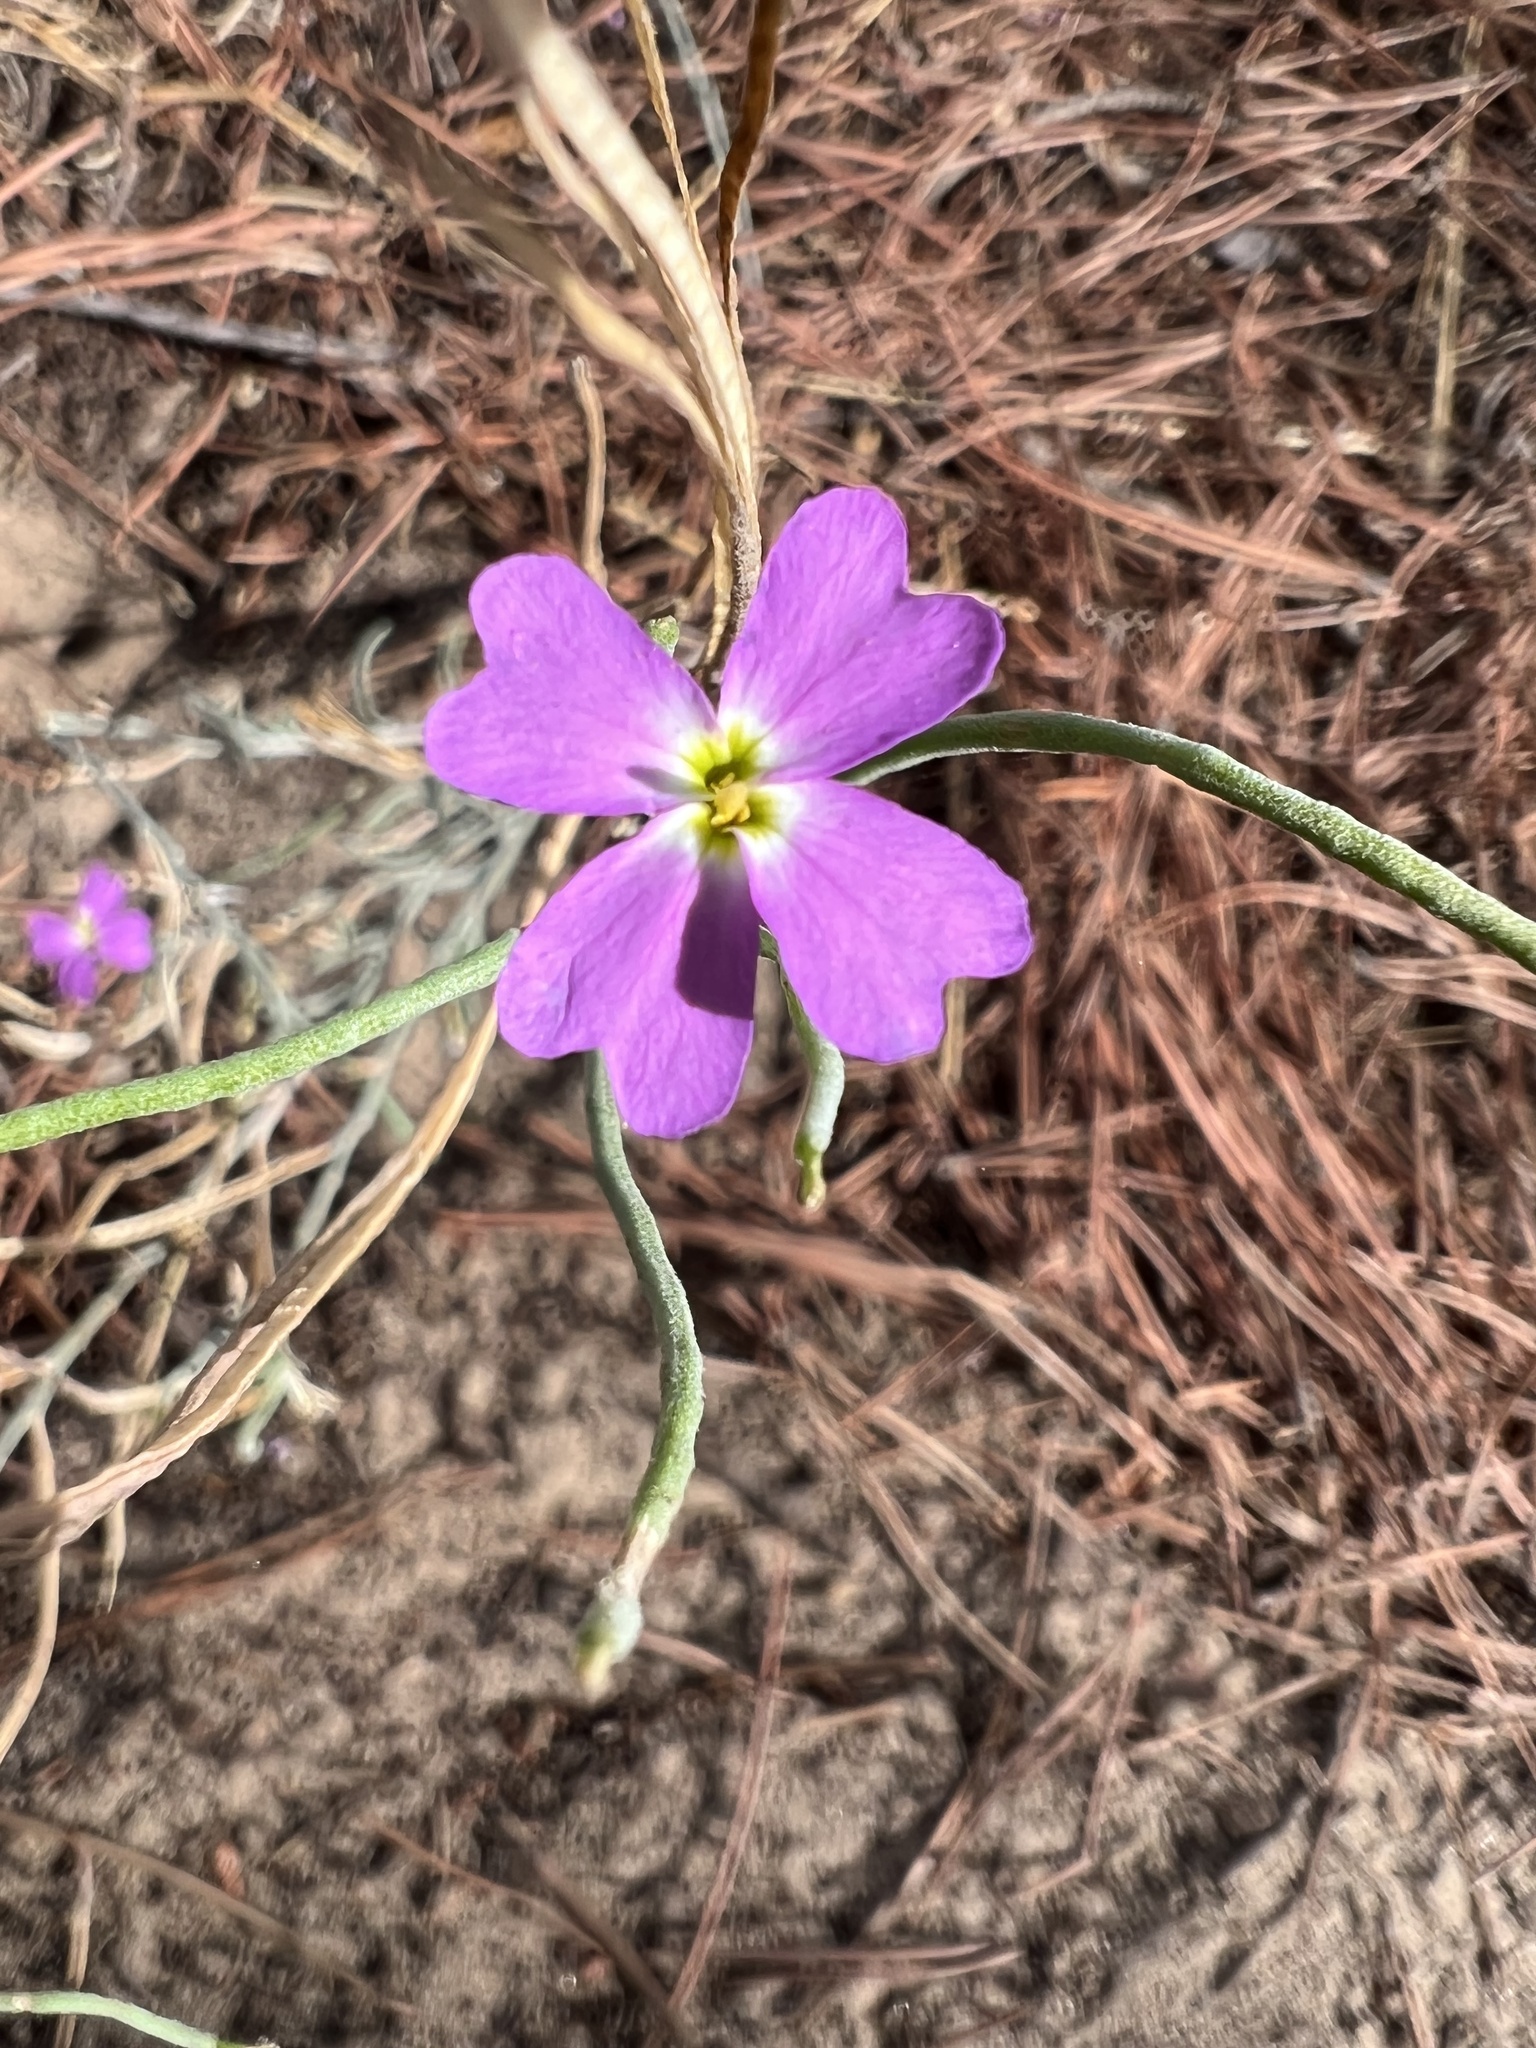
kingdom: Plantae
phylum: Tracheophyta
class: Magnoliopsida
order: Brassicales
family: Brassicaceae
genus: Marcuskochia
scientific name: Marcuskochia littorea
